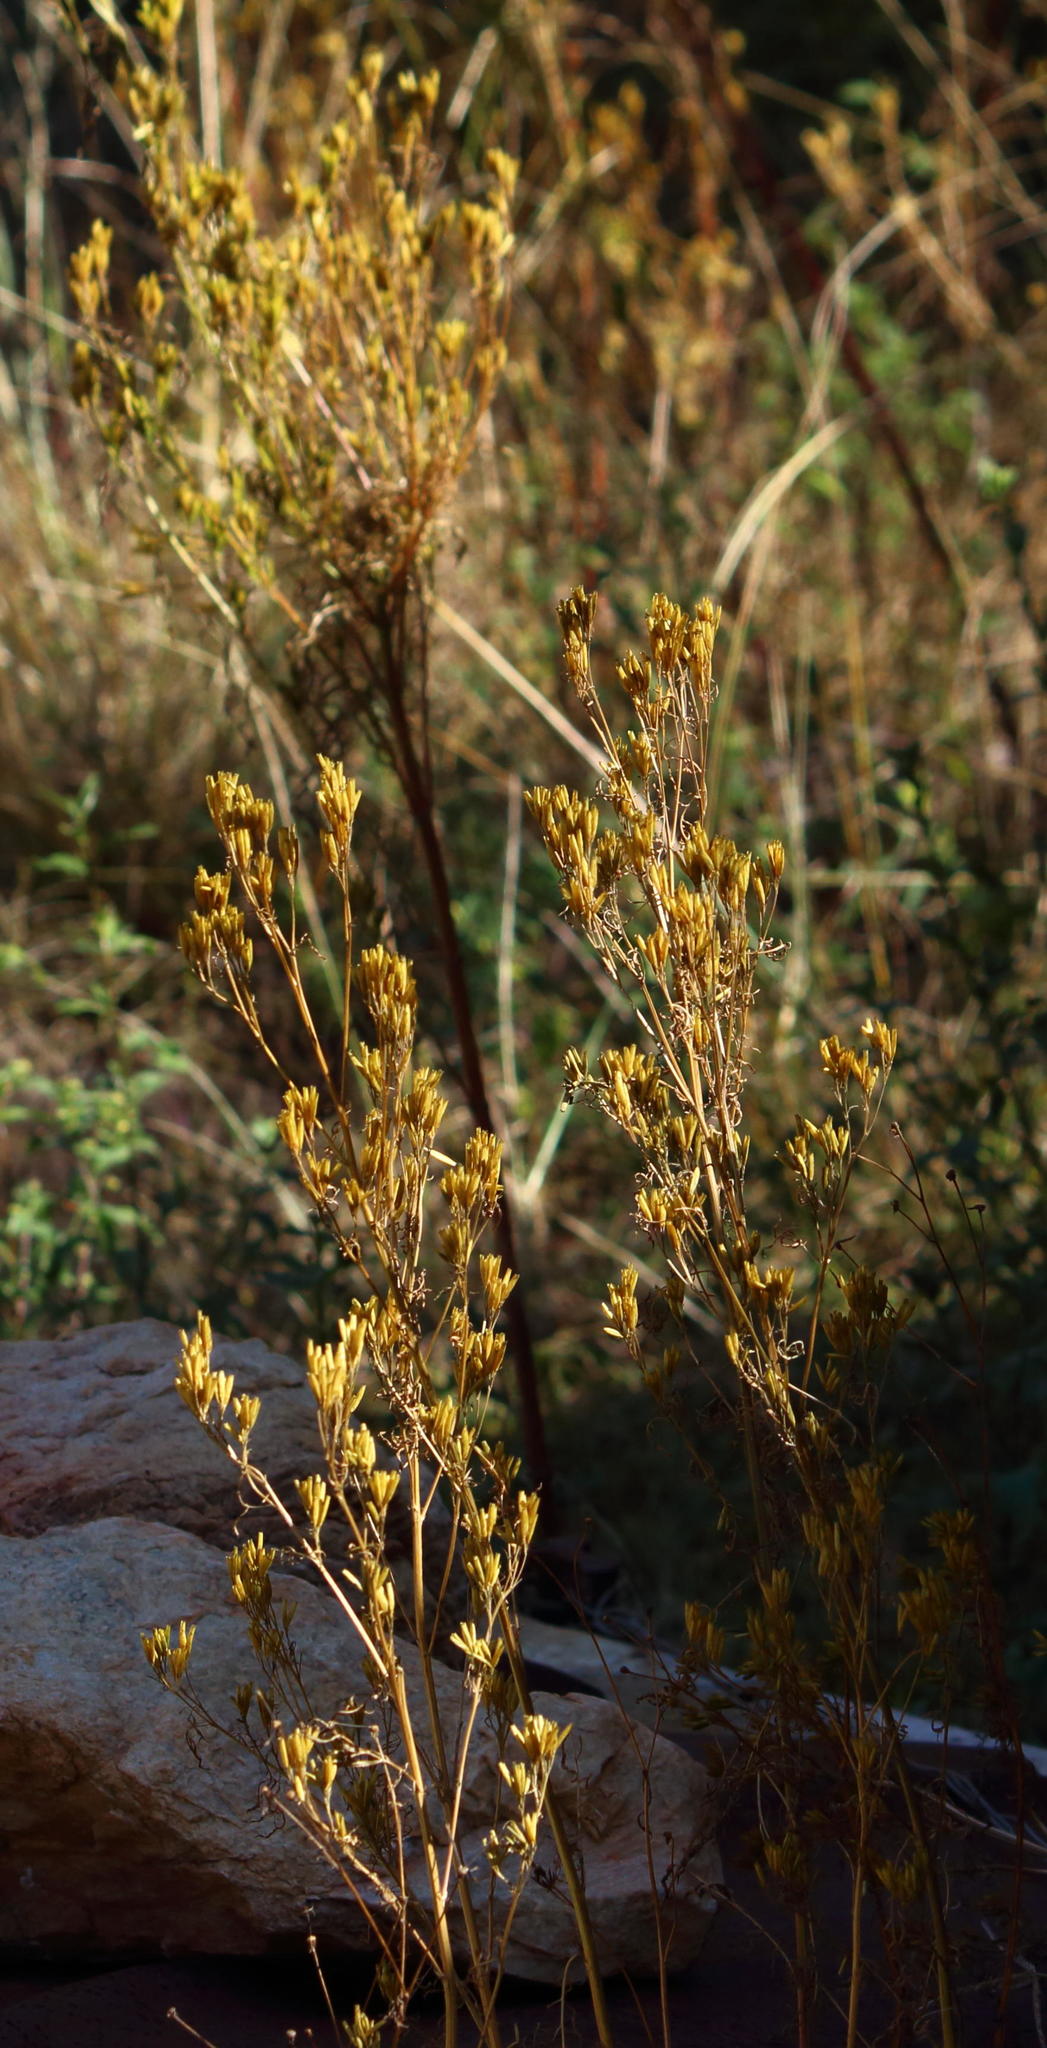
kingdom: Plantae
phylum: Tracheophyta
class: Magnoliopsida
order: Asterales
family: Asteraceae
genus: Tagetes
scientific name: Tagetes minuta
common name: Muster john henry
